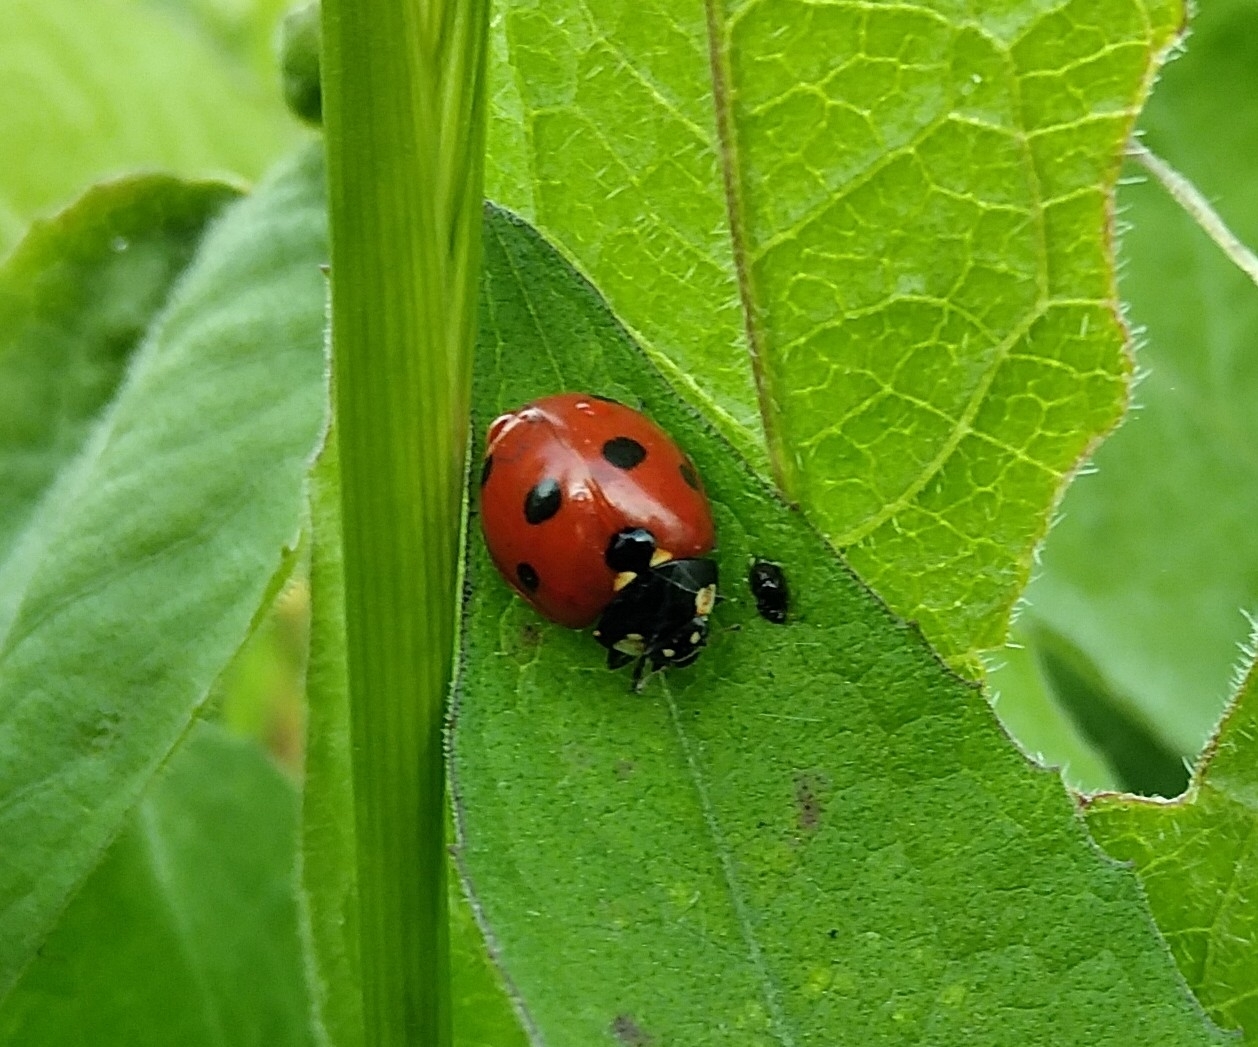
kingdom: Animalia
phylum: Arthropoda
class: Insecta
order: Coleoptera
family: Coccinellidae
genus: Coccinella
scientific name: Coccinella septempunctata
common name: Sevenspotted lady beetle
